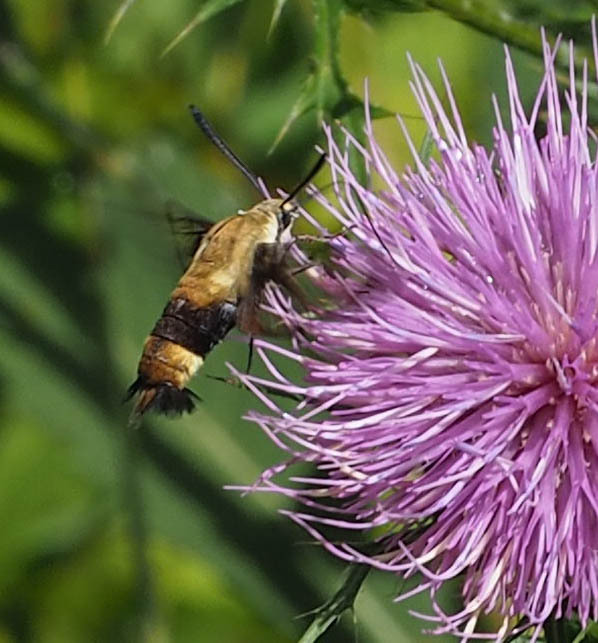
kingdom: Animalia
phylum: Arthropoda
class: Insecta
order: Lepidoptera
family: Sphingidae
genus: Hemaris
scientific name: Hemaris diffinis
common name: Bumblebee moth
